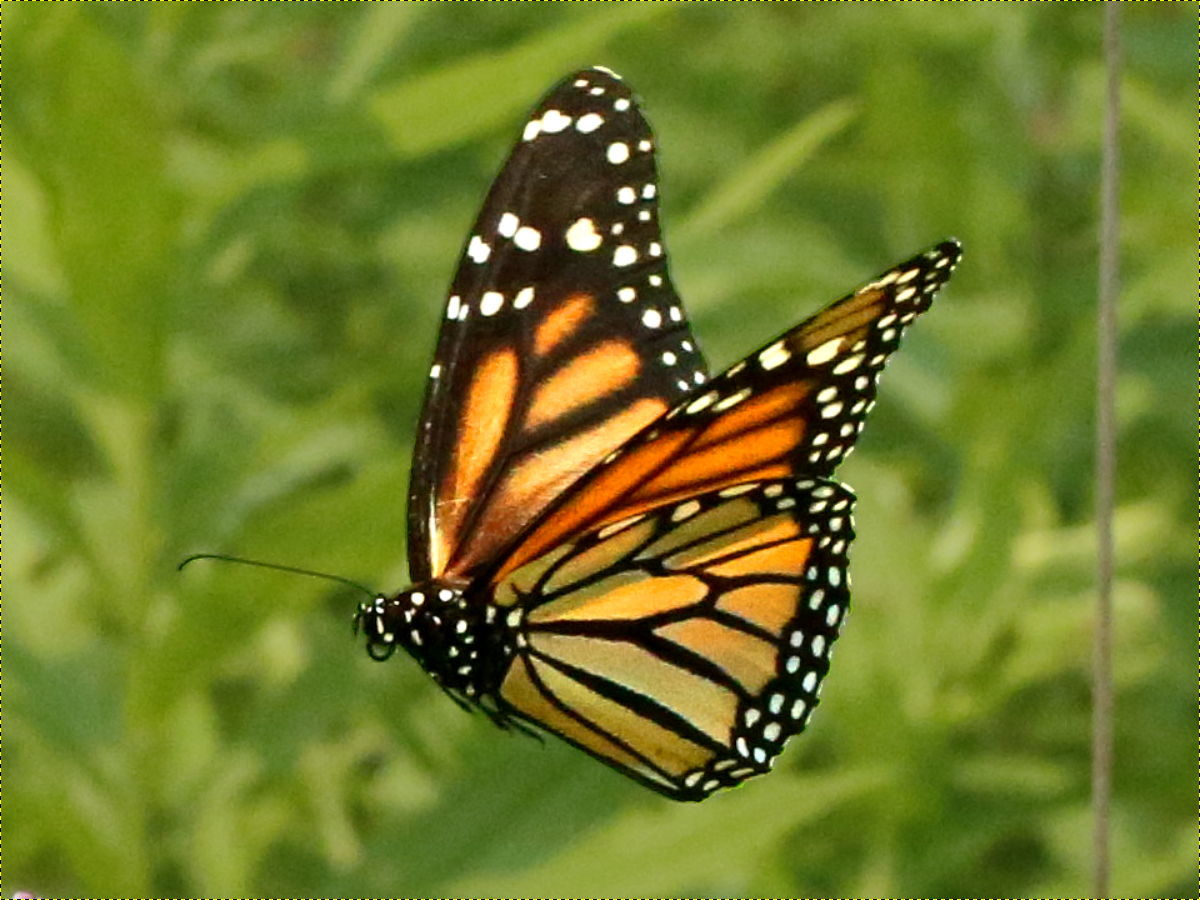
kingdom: Animalia
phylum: Arthropoda
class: Insecta
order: Lepidoptera
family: Nymphalidae
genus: Danaus
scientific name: Danaus plexippus
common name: Monarch
